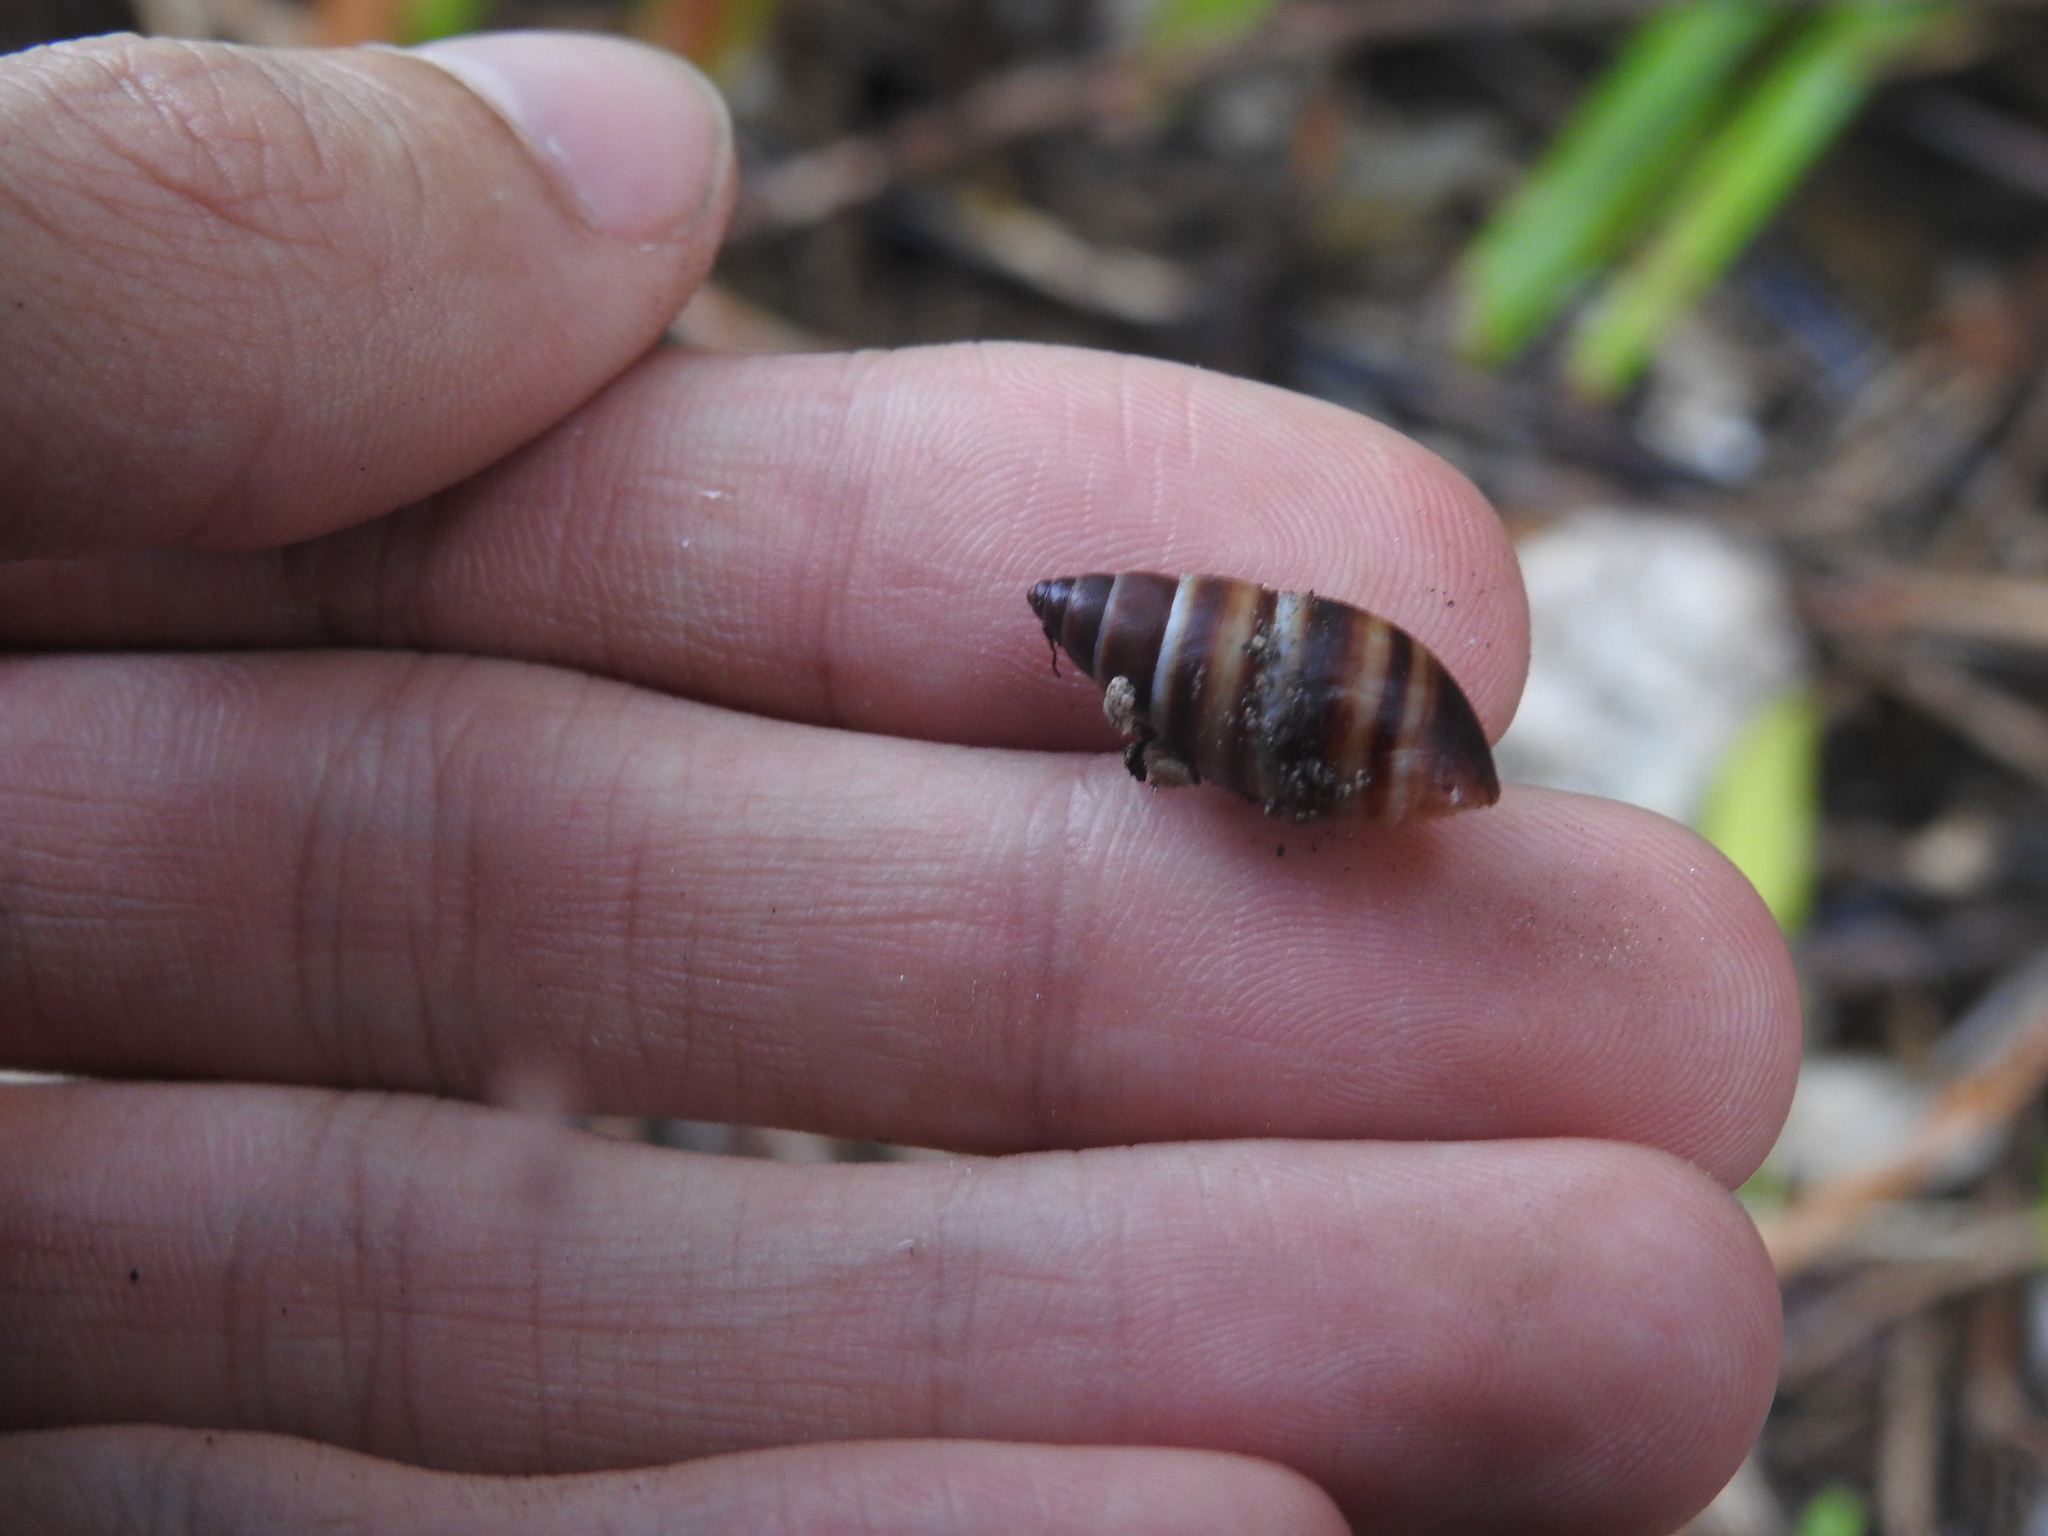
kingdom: Animalia
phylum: Mollusca
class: Gastropoda
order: Stylommatophora
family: Bulimulidae
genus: Bulimulus
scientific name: Bulimulus guadalupensis
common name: West indian bulimulus
